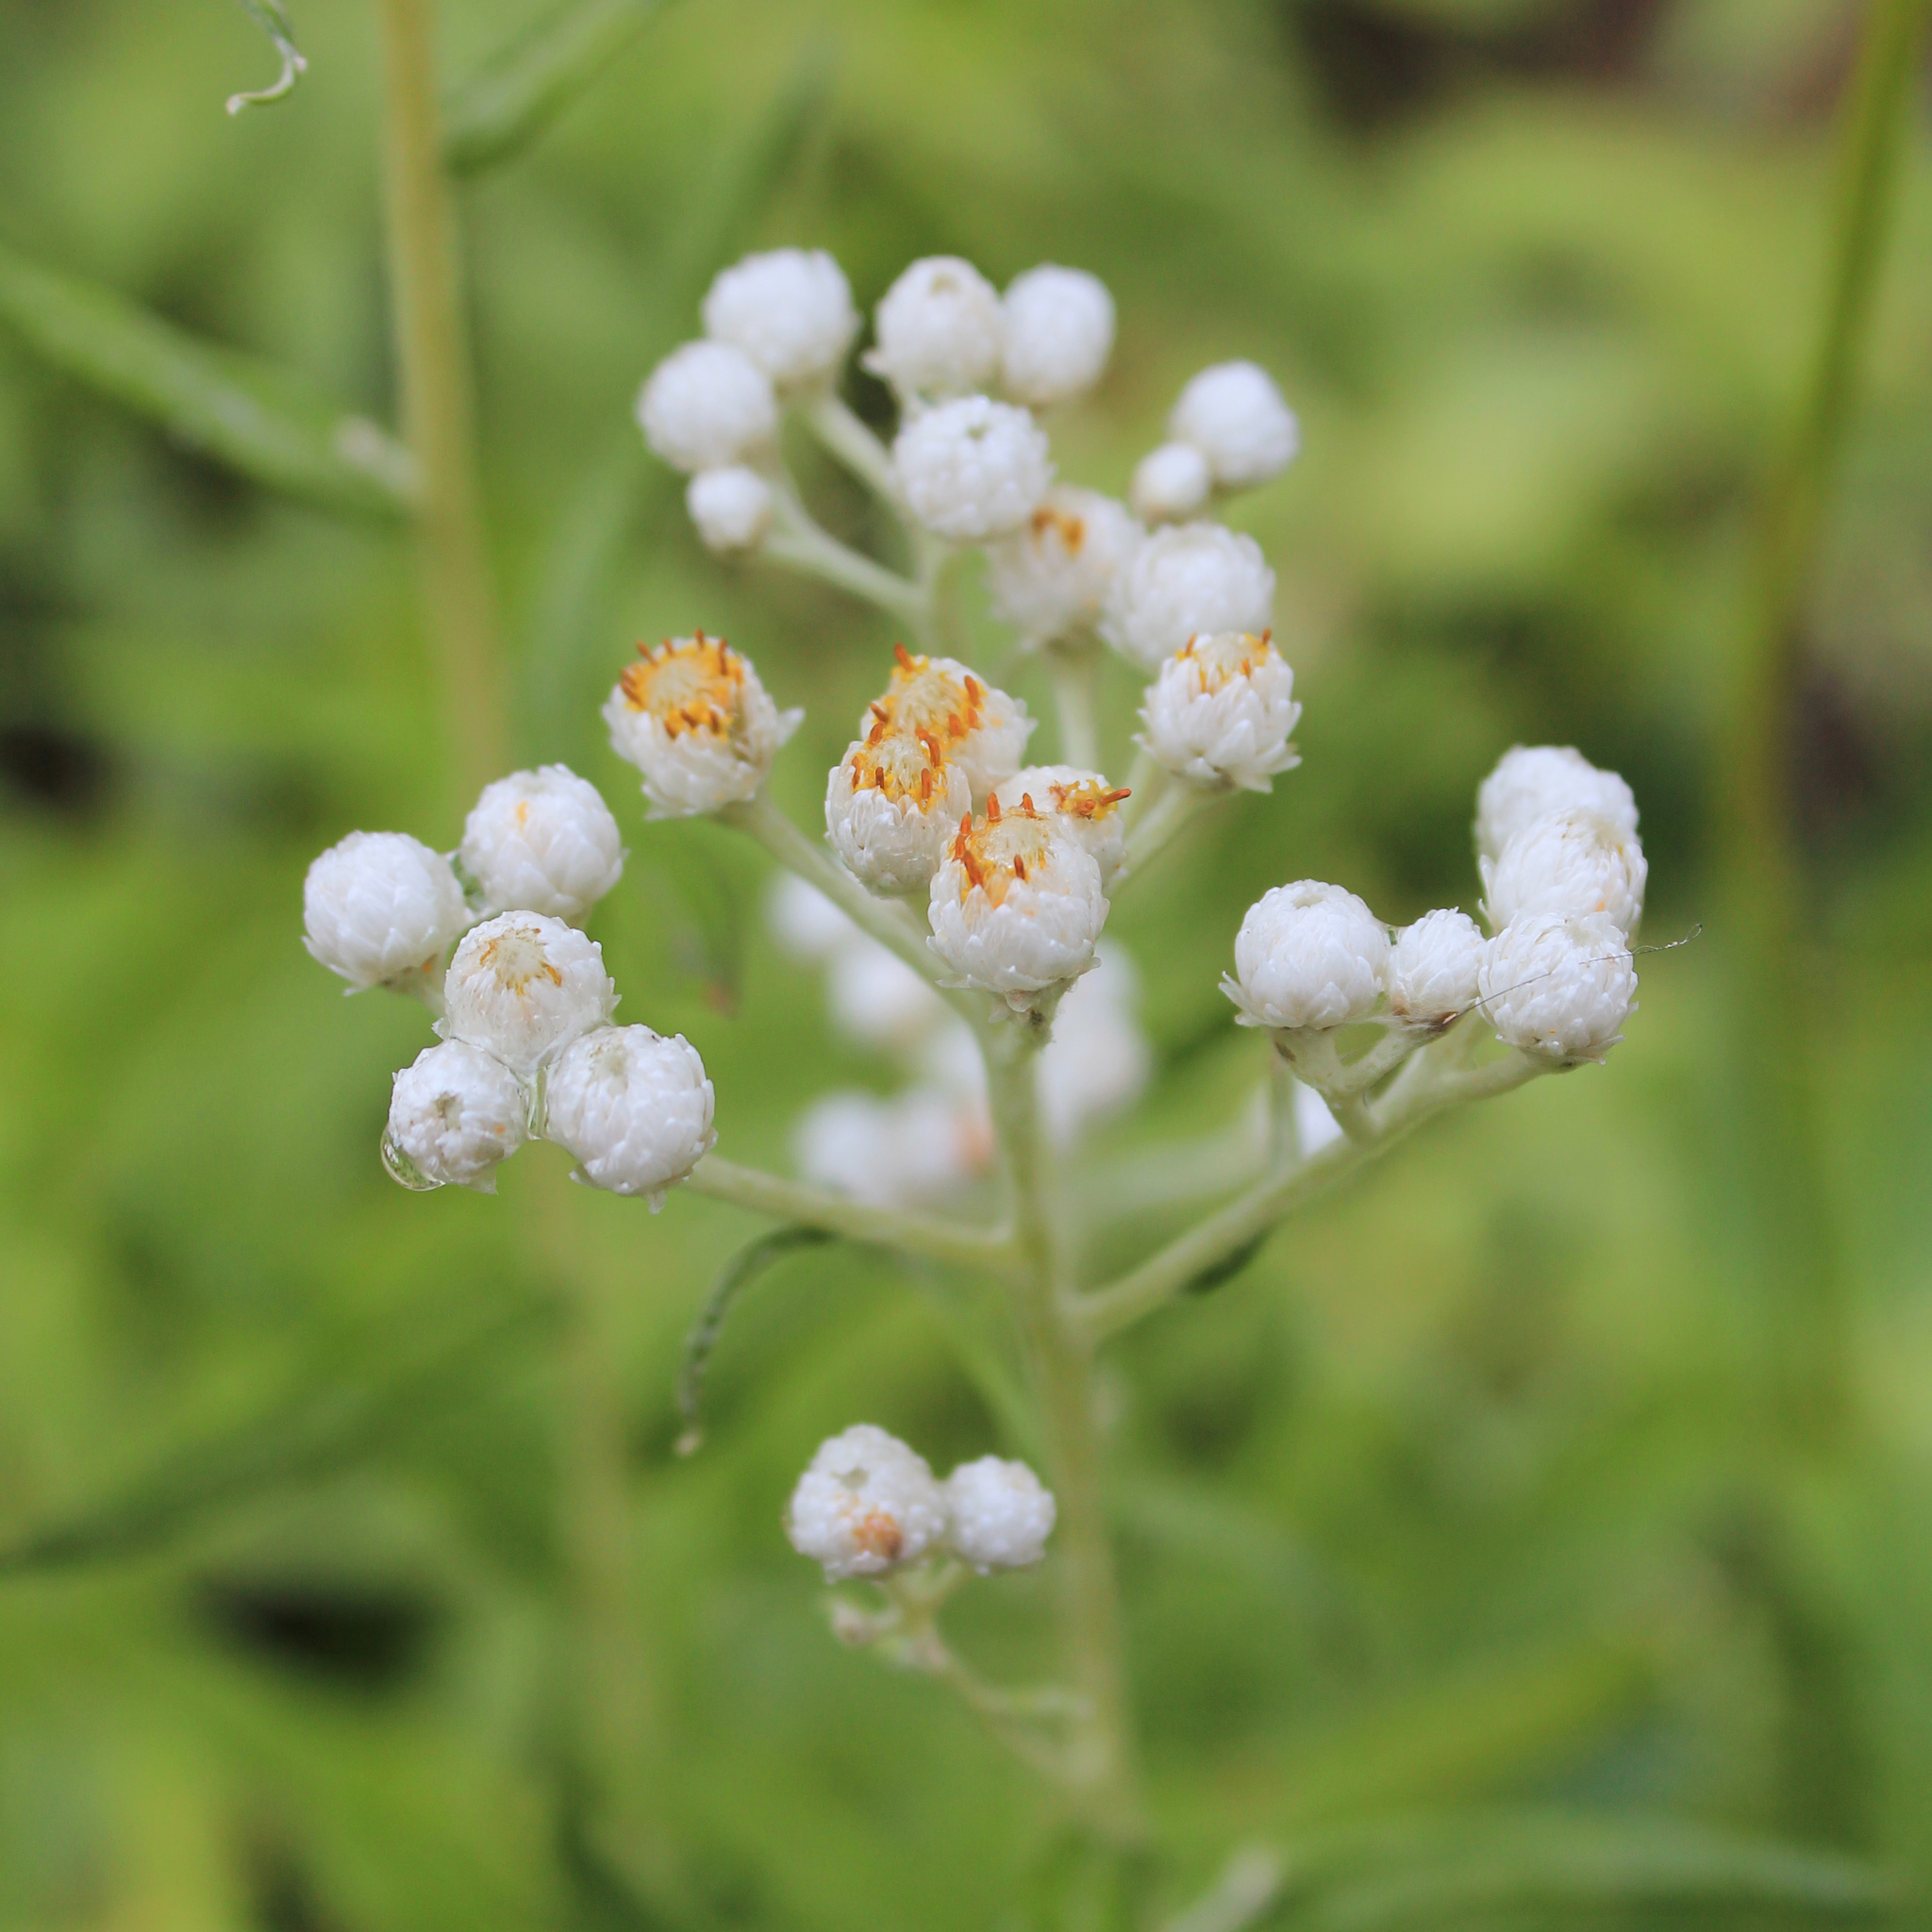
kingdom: Plantae
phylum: Tracheophyta
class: Magnoliopsida
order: Asterales
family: Asteraceae
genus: Anaphalis
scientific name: Anaphalis margaritacea
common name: Pearly everlasting
